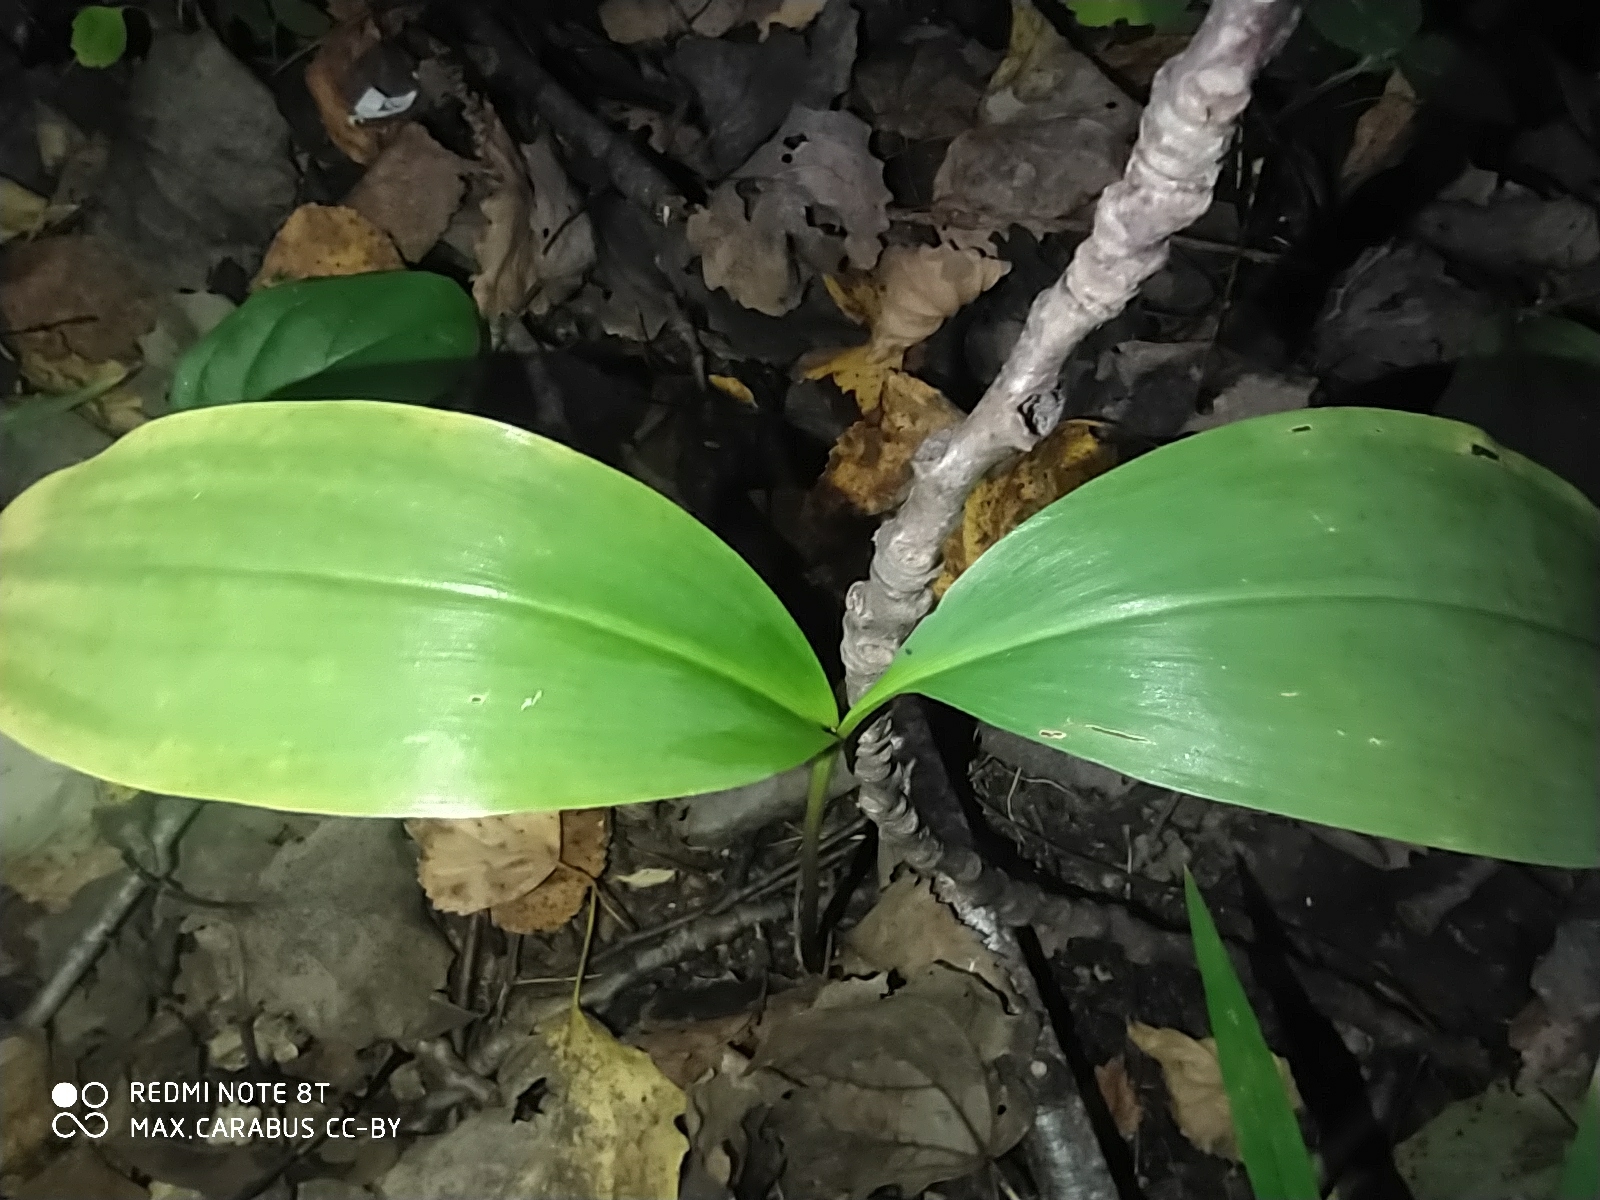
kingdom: Plantae
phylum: Tracheophyta
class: Liliopsida
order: Asparagales
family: Asparagaceae
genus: Convallaria
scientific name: Convallaria majalis
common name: Lily-of-the-valley
